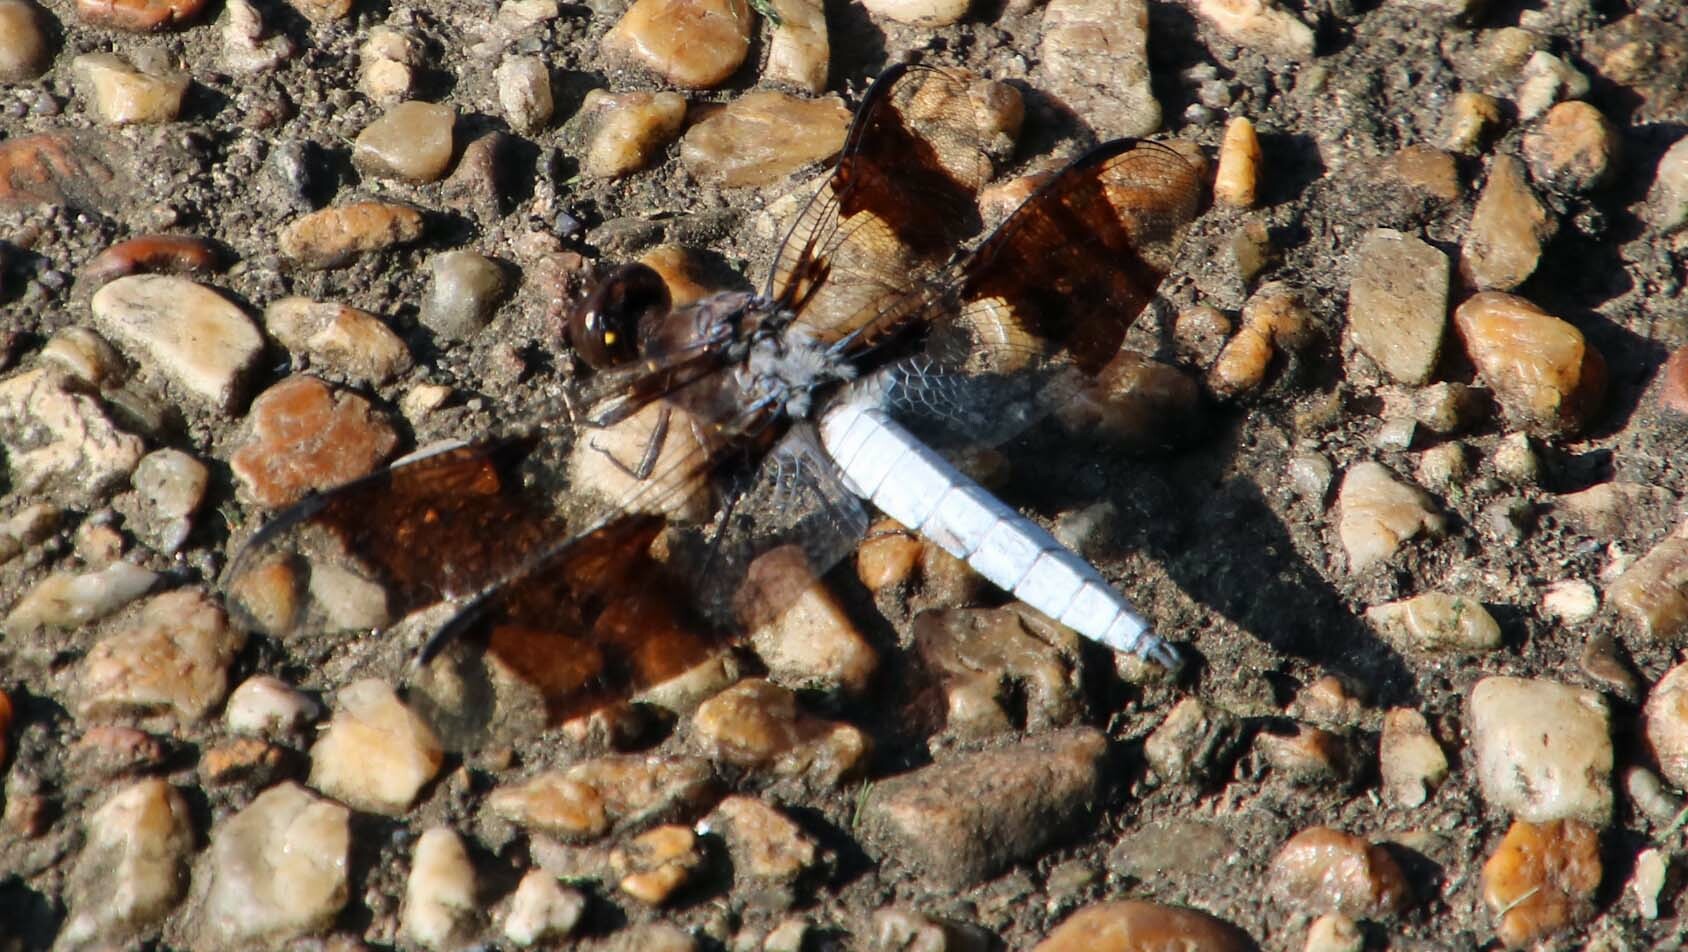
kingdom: Animalia
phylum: Arthropoda
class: Insecta
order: Odonata
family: Libellulidae
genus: Plathemis
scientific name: Plathemis lydia
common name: Common whitetail
